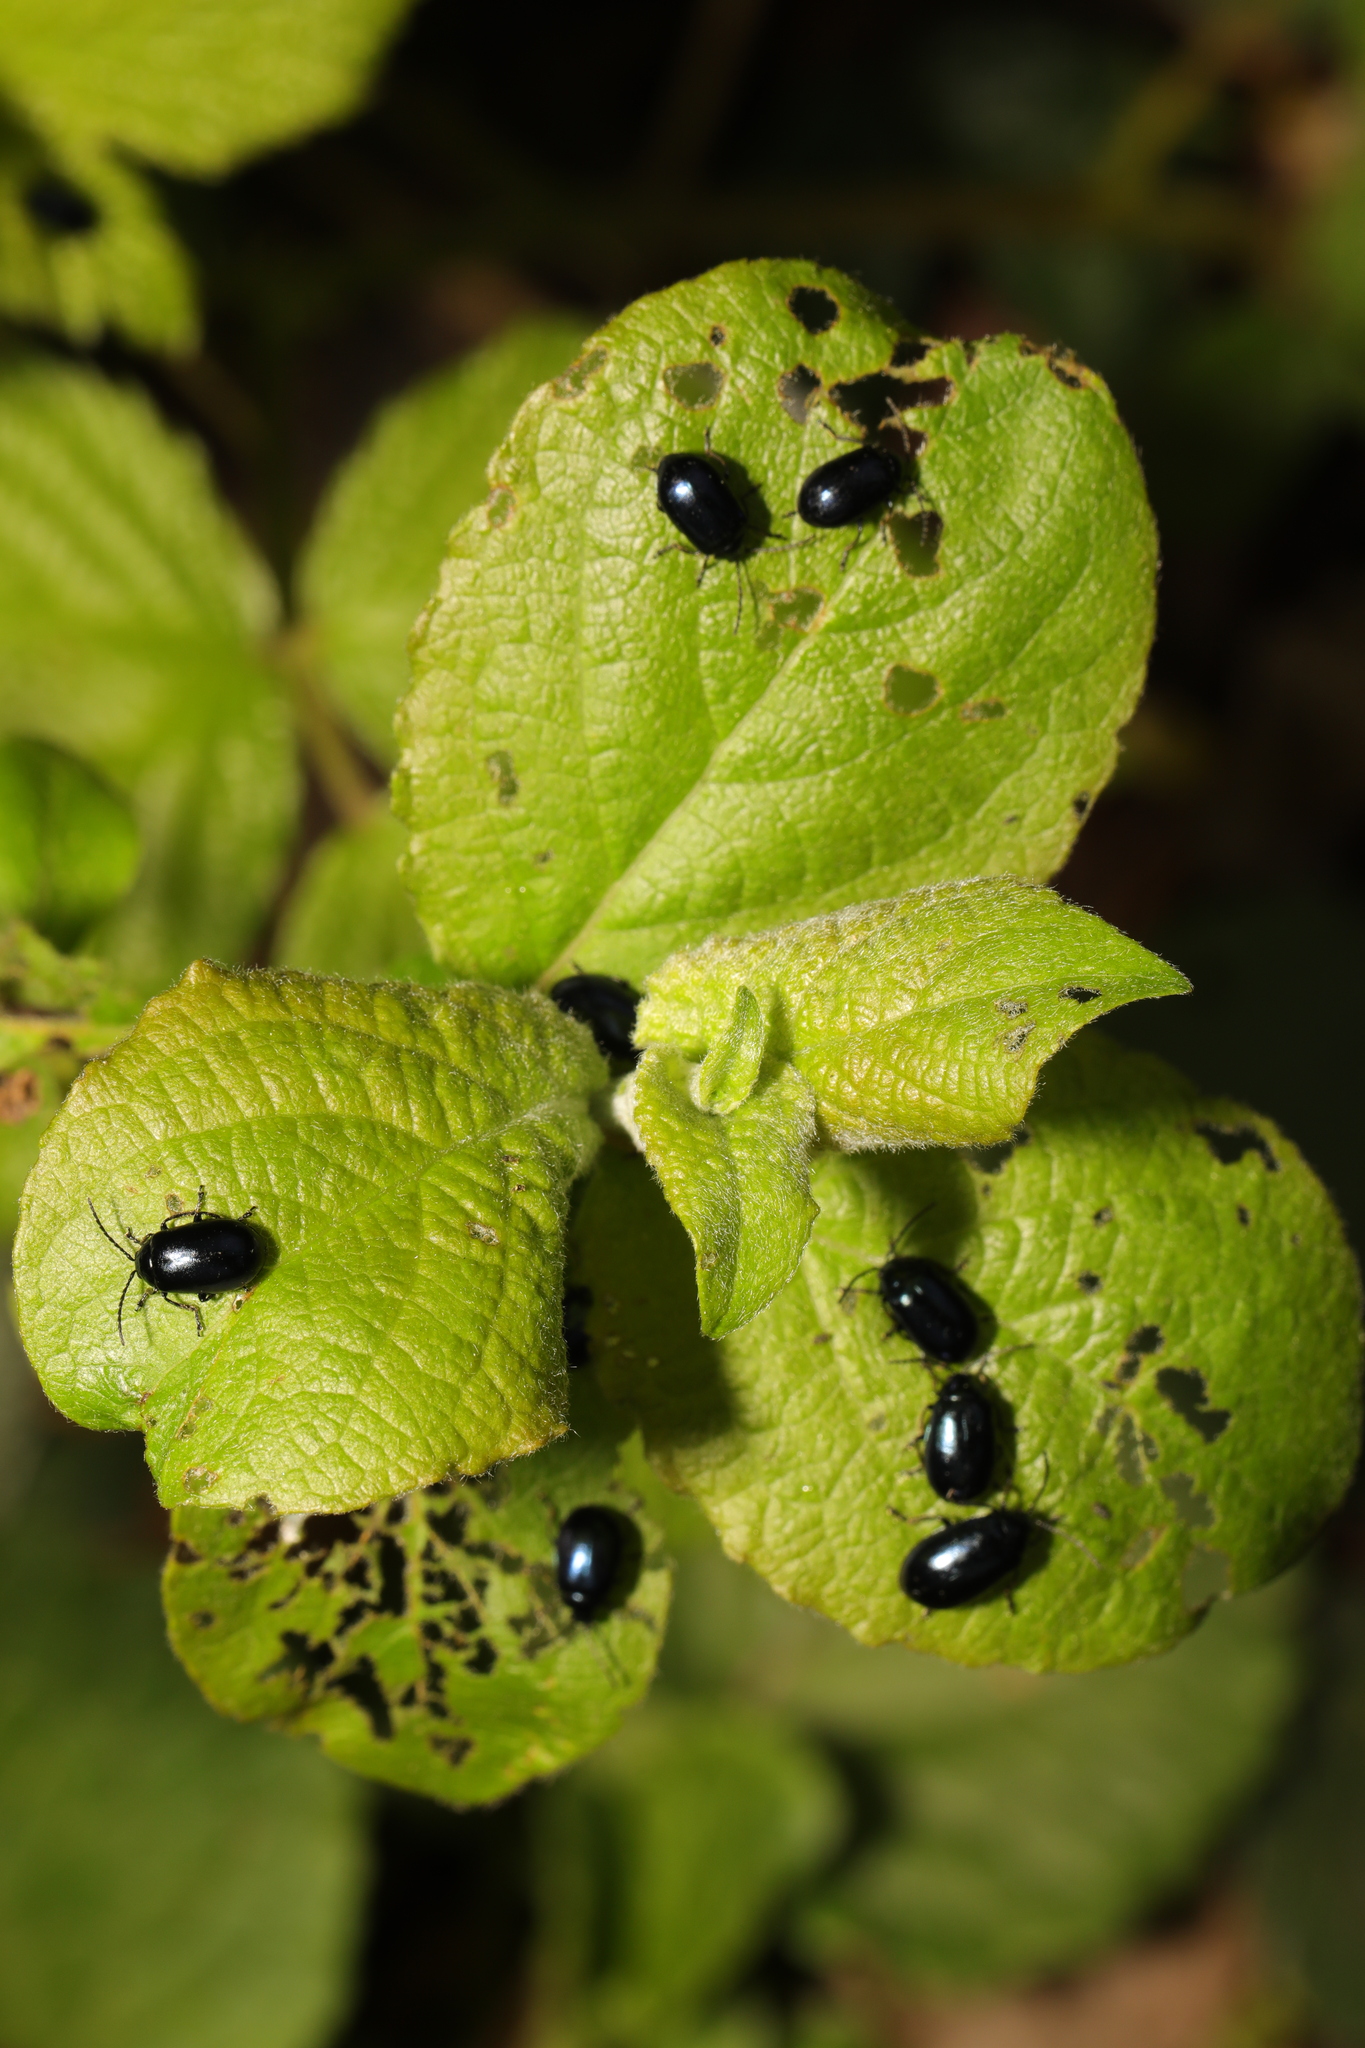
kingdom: Animalia
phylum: Arthropoda
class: Insecta
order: Coleoptera
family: Chrysomelidae
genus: Agelastica
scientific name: Agelastica alni
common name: Alder leaf beetle
